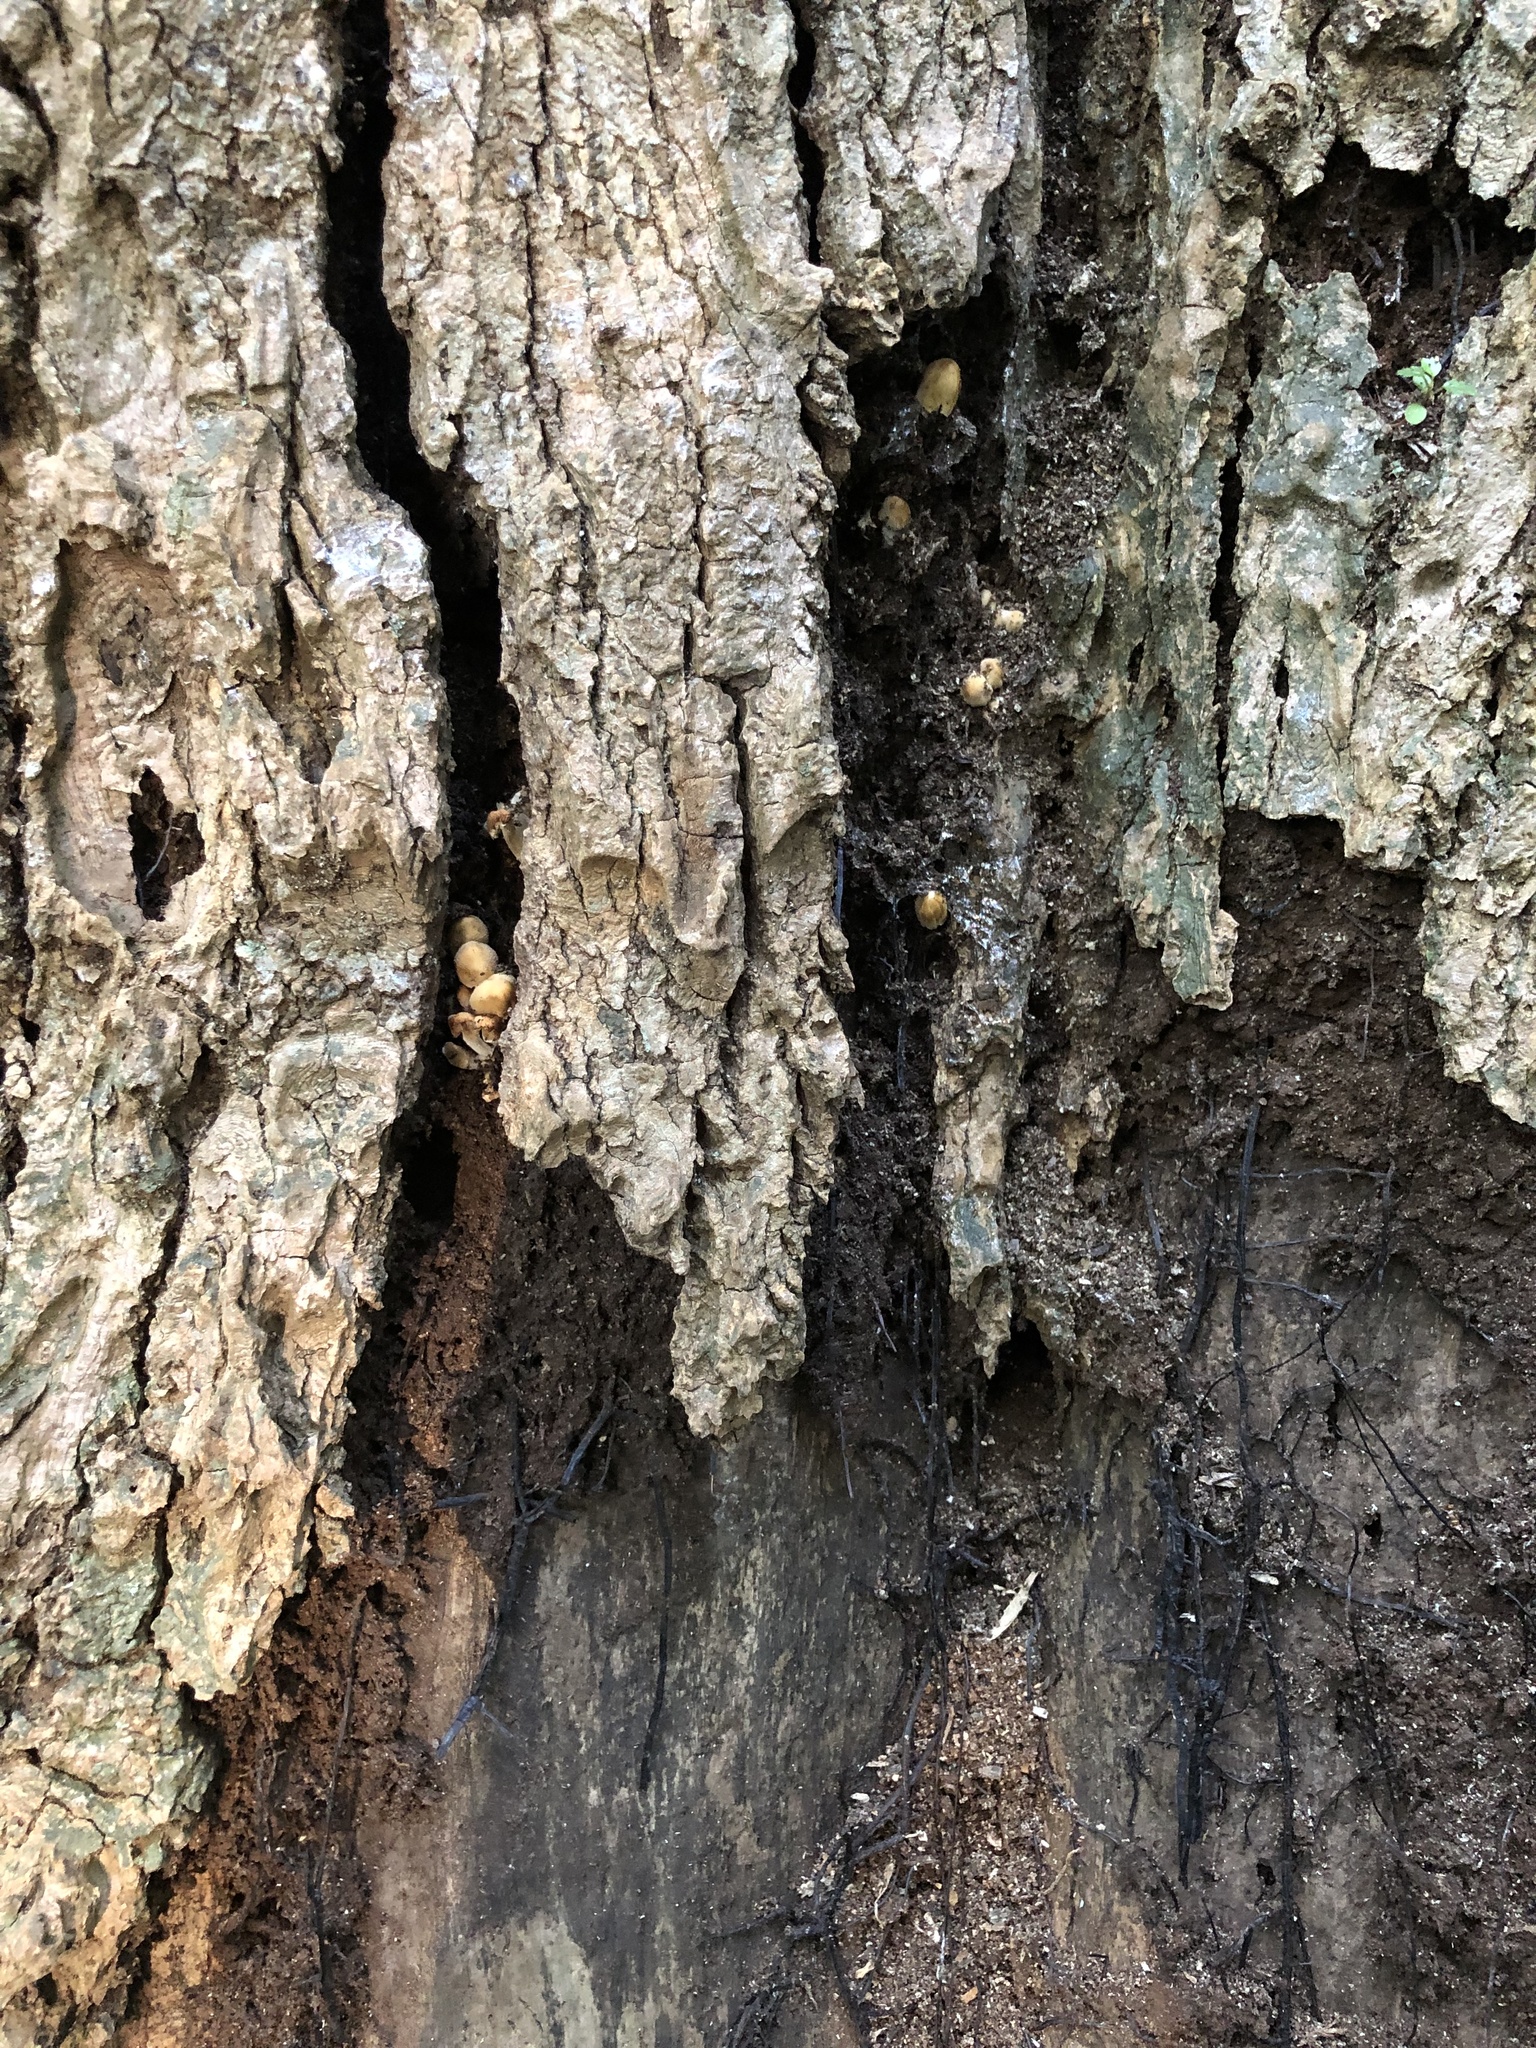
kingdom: Fungi
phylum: Basidiomycota
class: Agaricomycetes
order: Agaricales
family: Psathyrellaceae
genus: Coprinellus
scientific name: Coprinellus micaceus
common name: Glistening ink-cap
